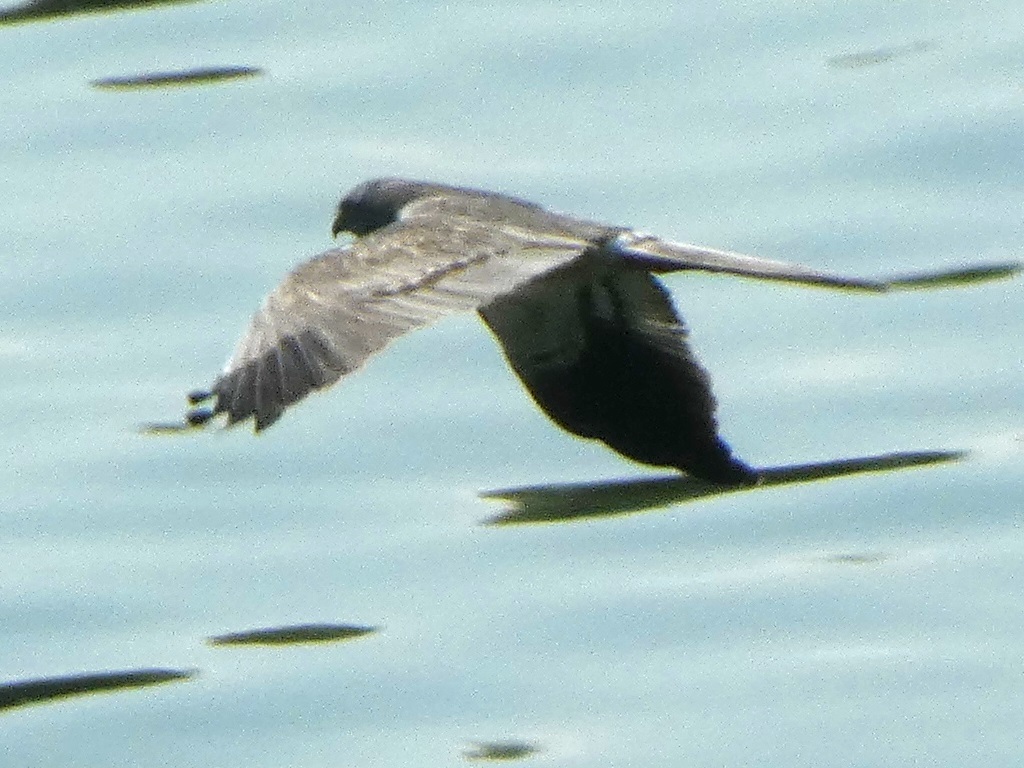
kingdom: Animalia
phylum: Chordata
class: Aves
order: Accipitriformes
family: Accipitridae
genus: Circus
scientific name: Circus pygargus
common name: Montagu's harrier
